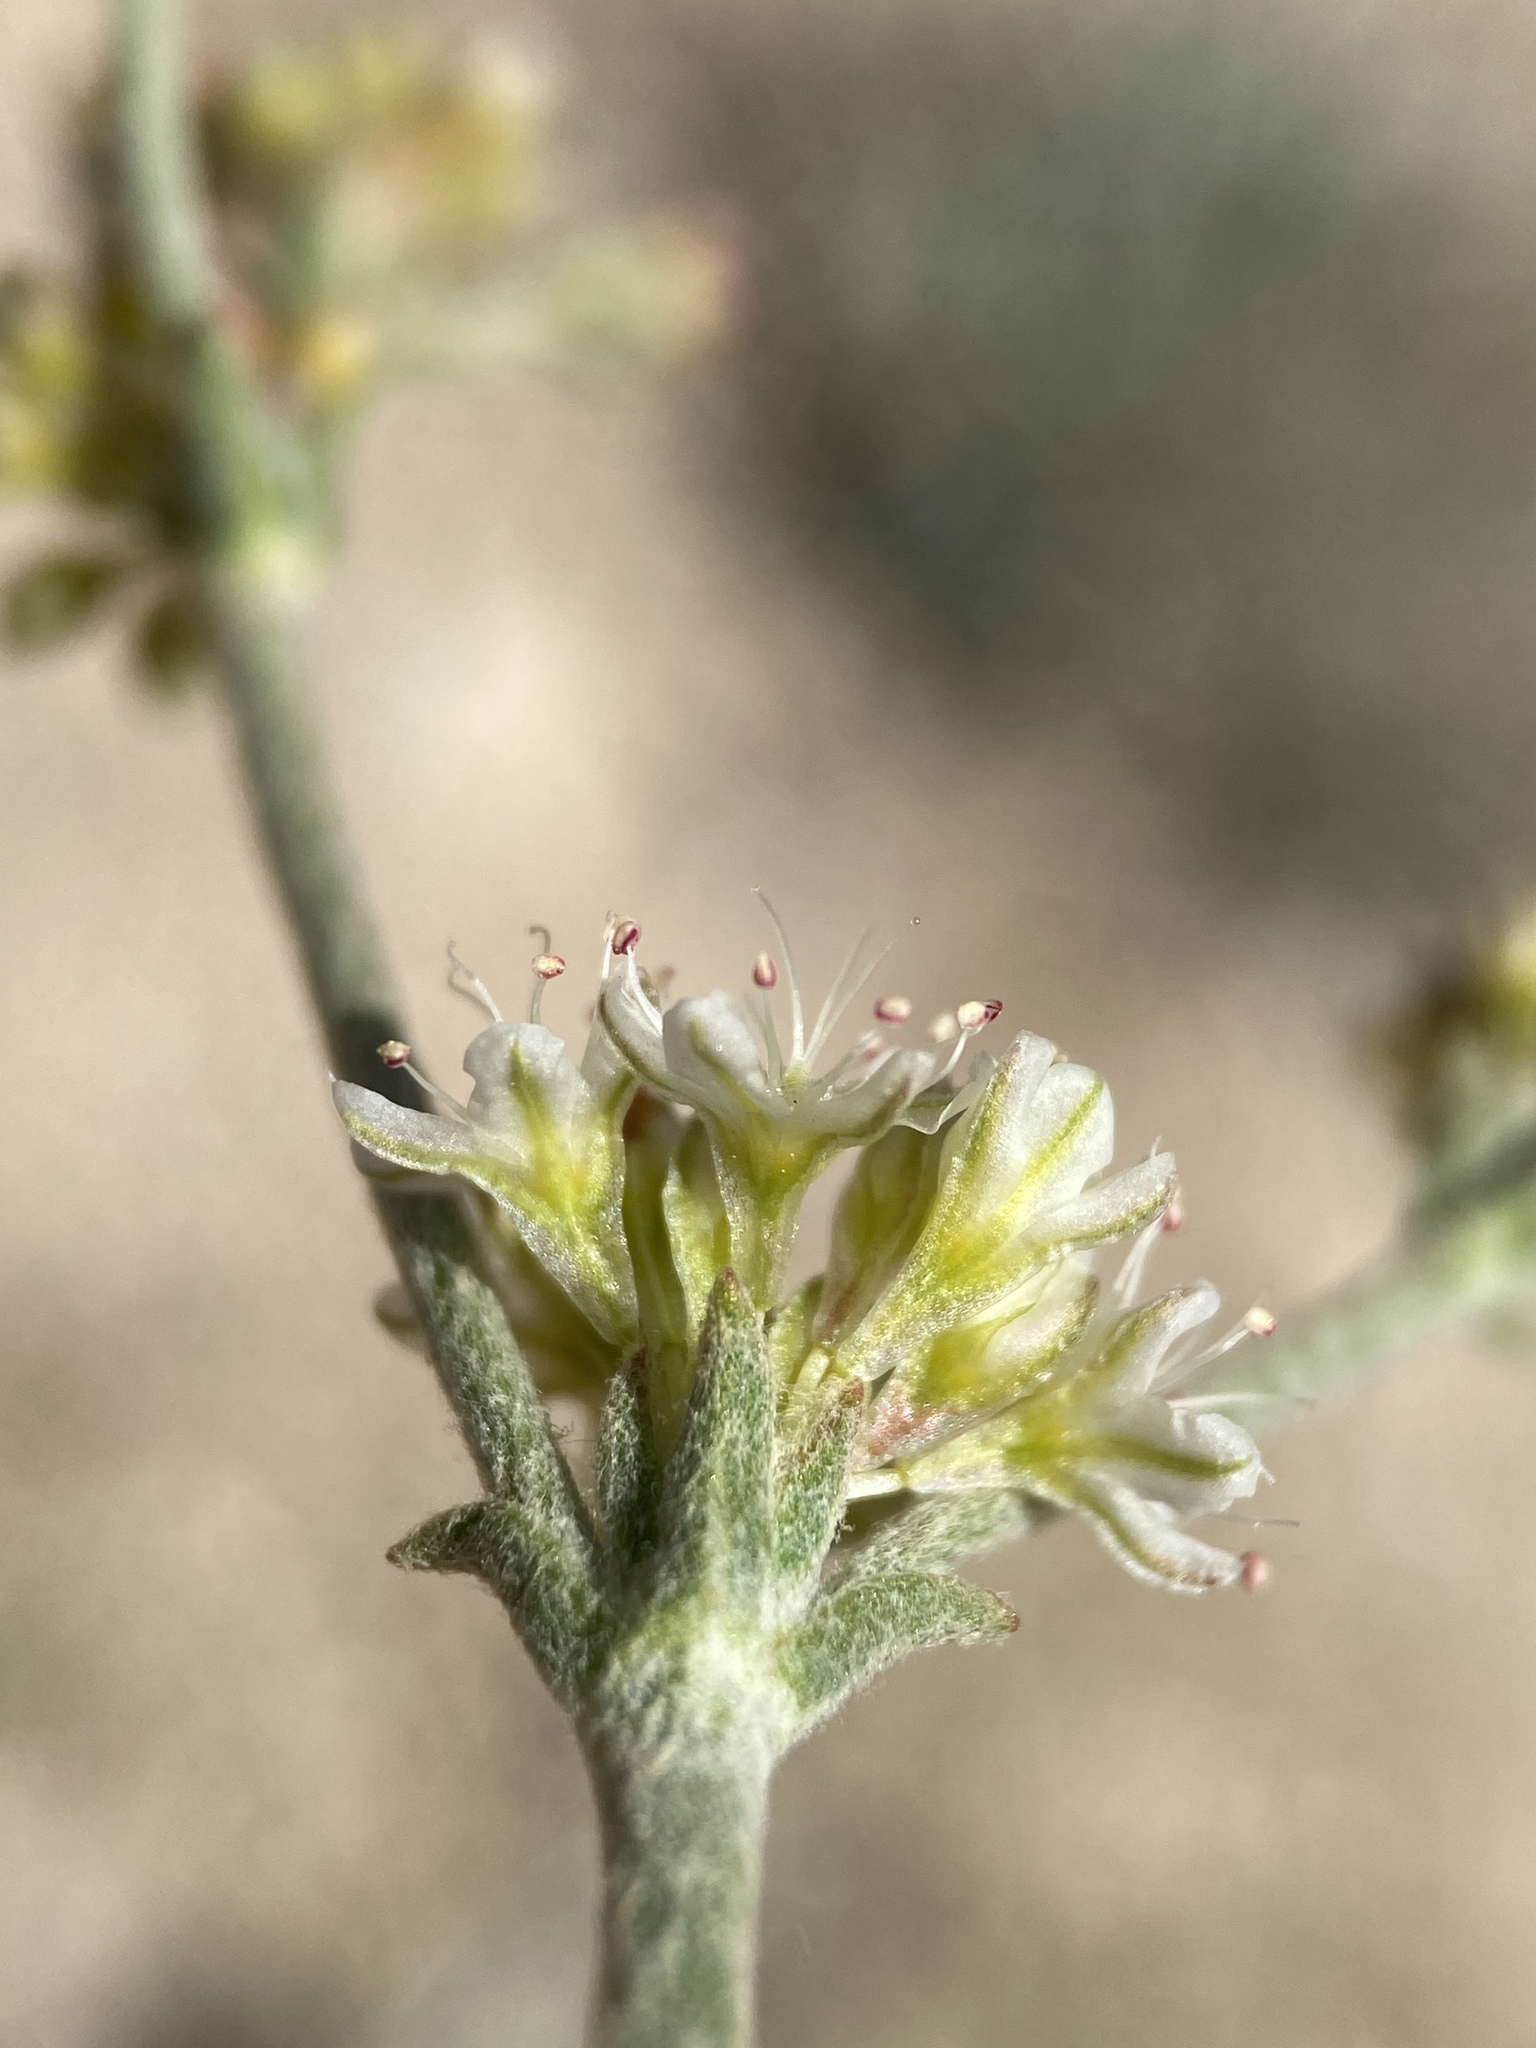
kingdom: Plantae
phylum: Tracheophyta
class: Magnoliopsida
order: Caryophyllales
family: Polygonaceae
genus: Eriogonum
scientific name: Eriogonum saxatile
